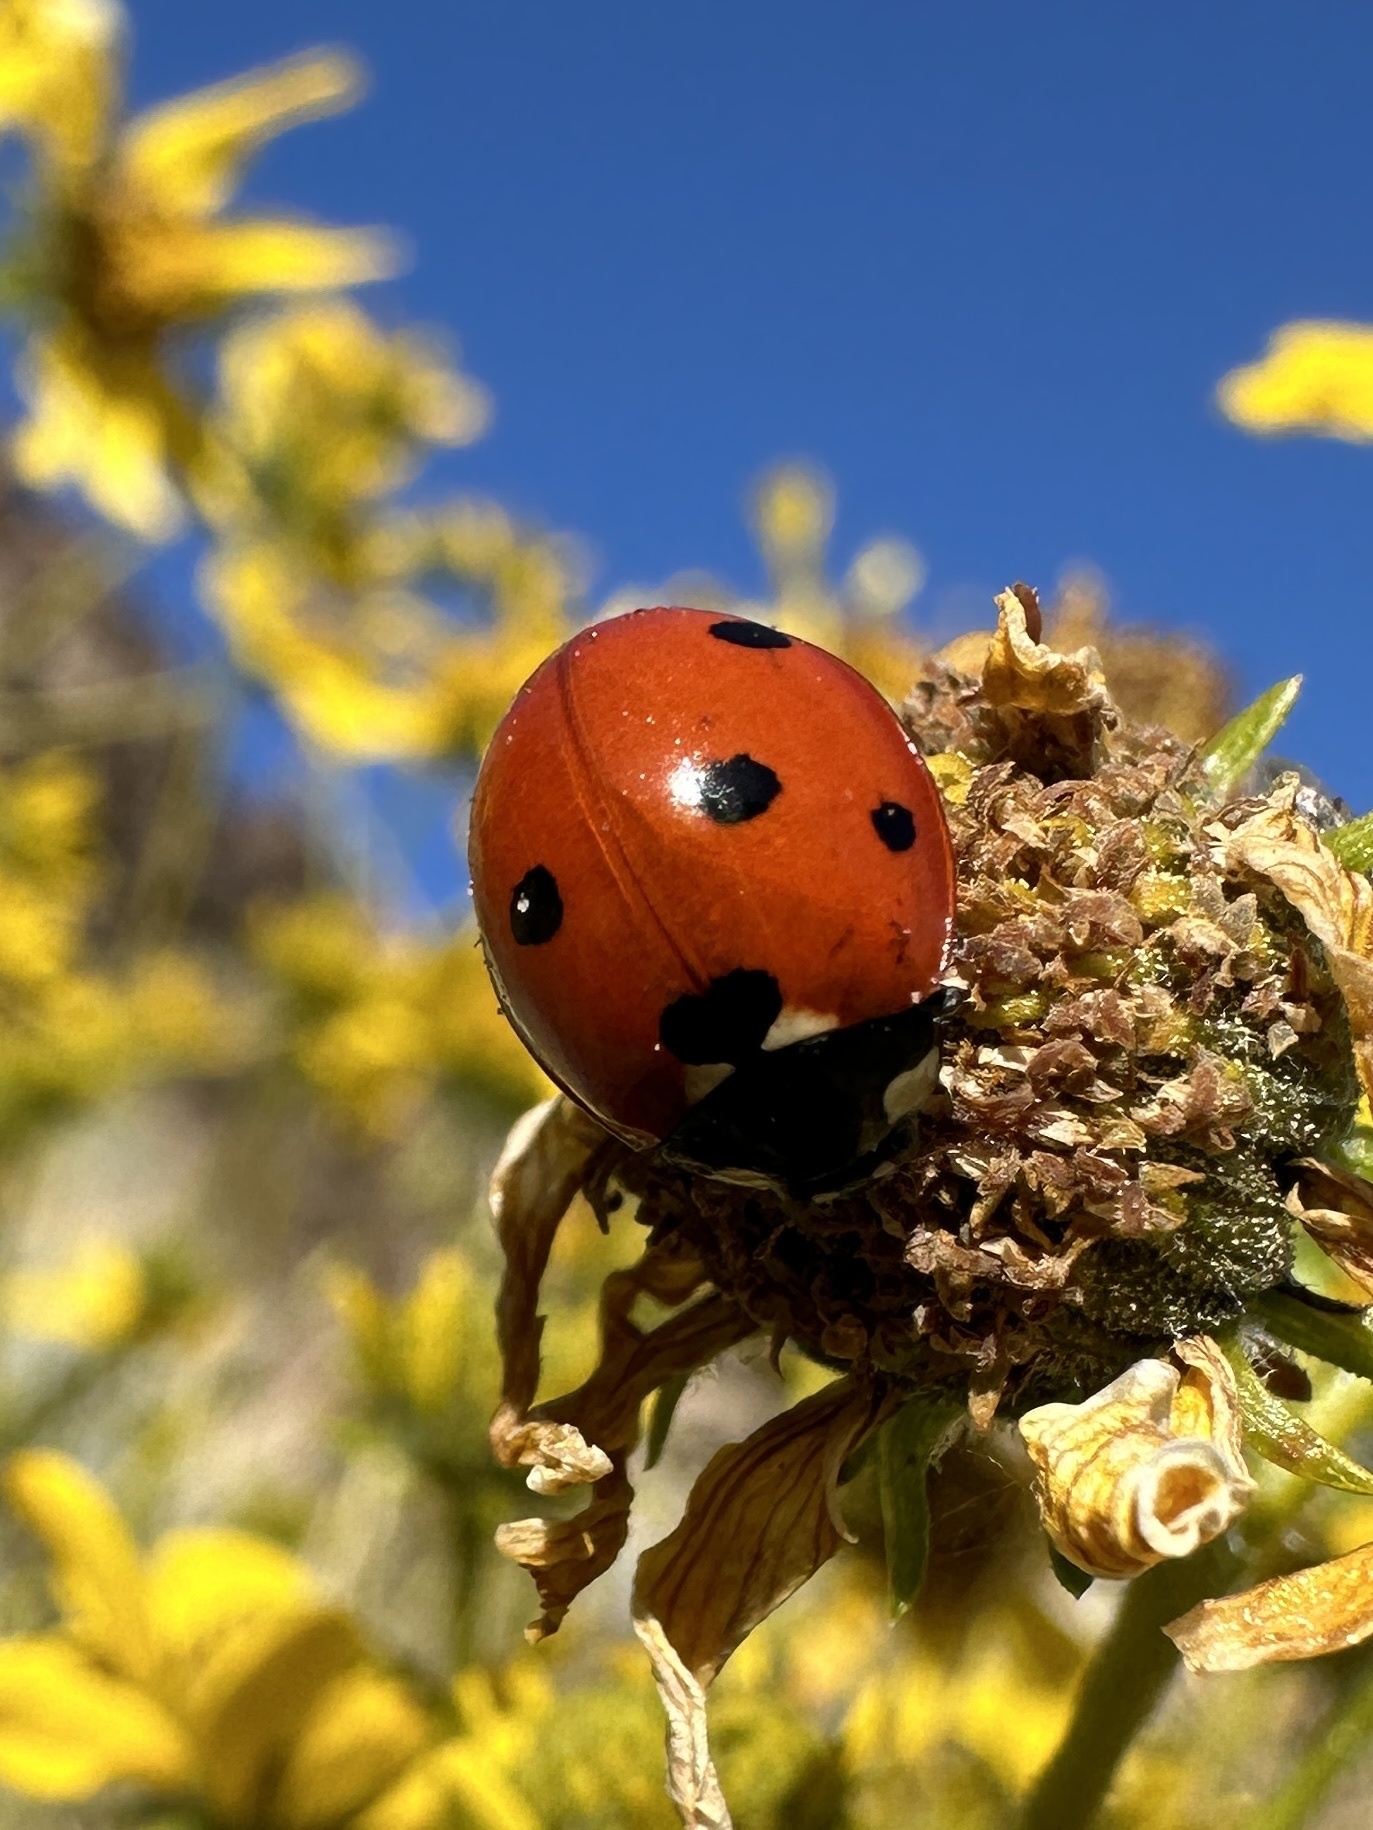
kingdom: Animalia
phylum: Arthropoda
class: Insecta
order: Coleoptera
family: Coccinellidae
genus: Coccinella
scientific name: Coccinella septempunctata
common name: Sevenspotted lady beetle
